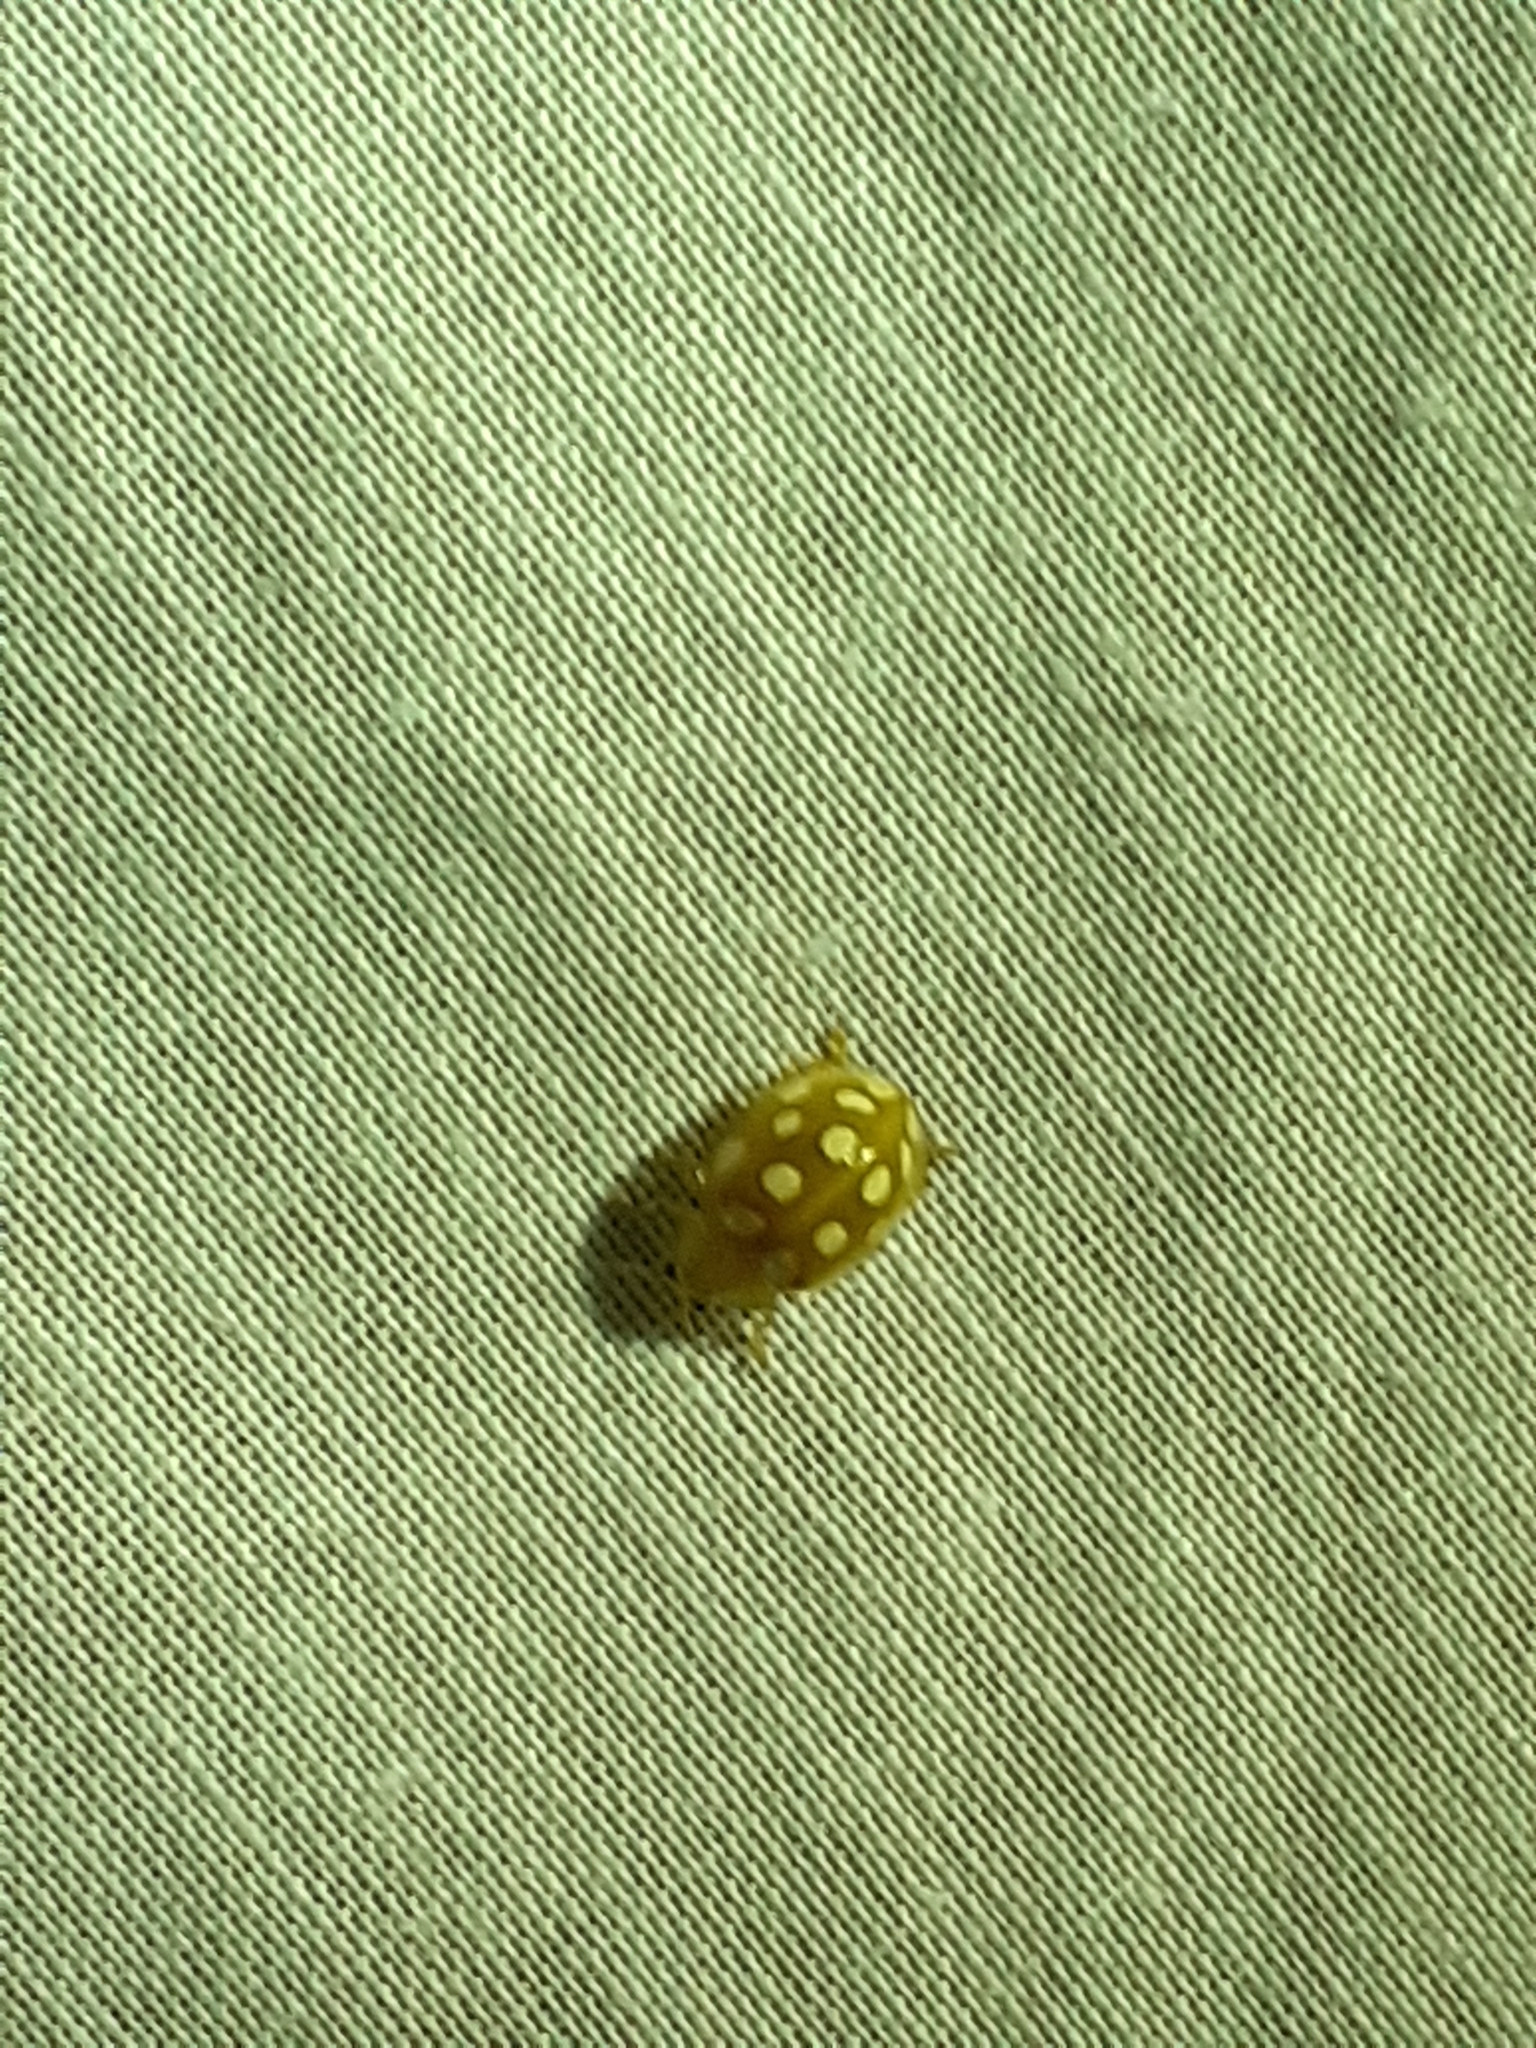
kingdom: Animalia
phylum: Arthropoda
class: Insecta
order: Coleoptera
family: Coccinellidae
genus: Halyzia
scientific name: Halyzia sedecimguttata
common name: Orange ladybird
